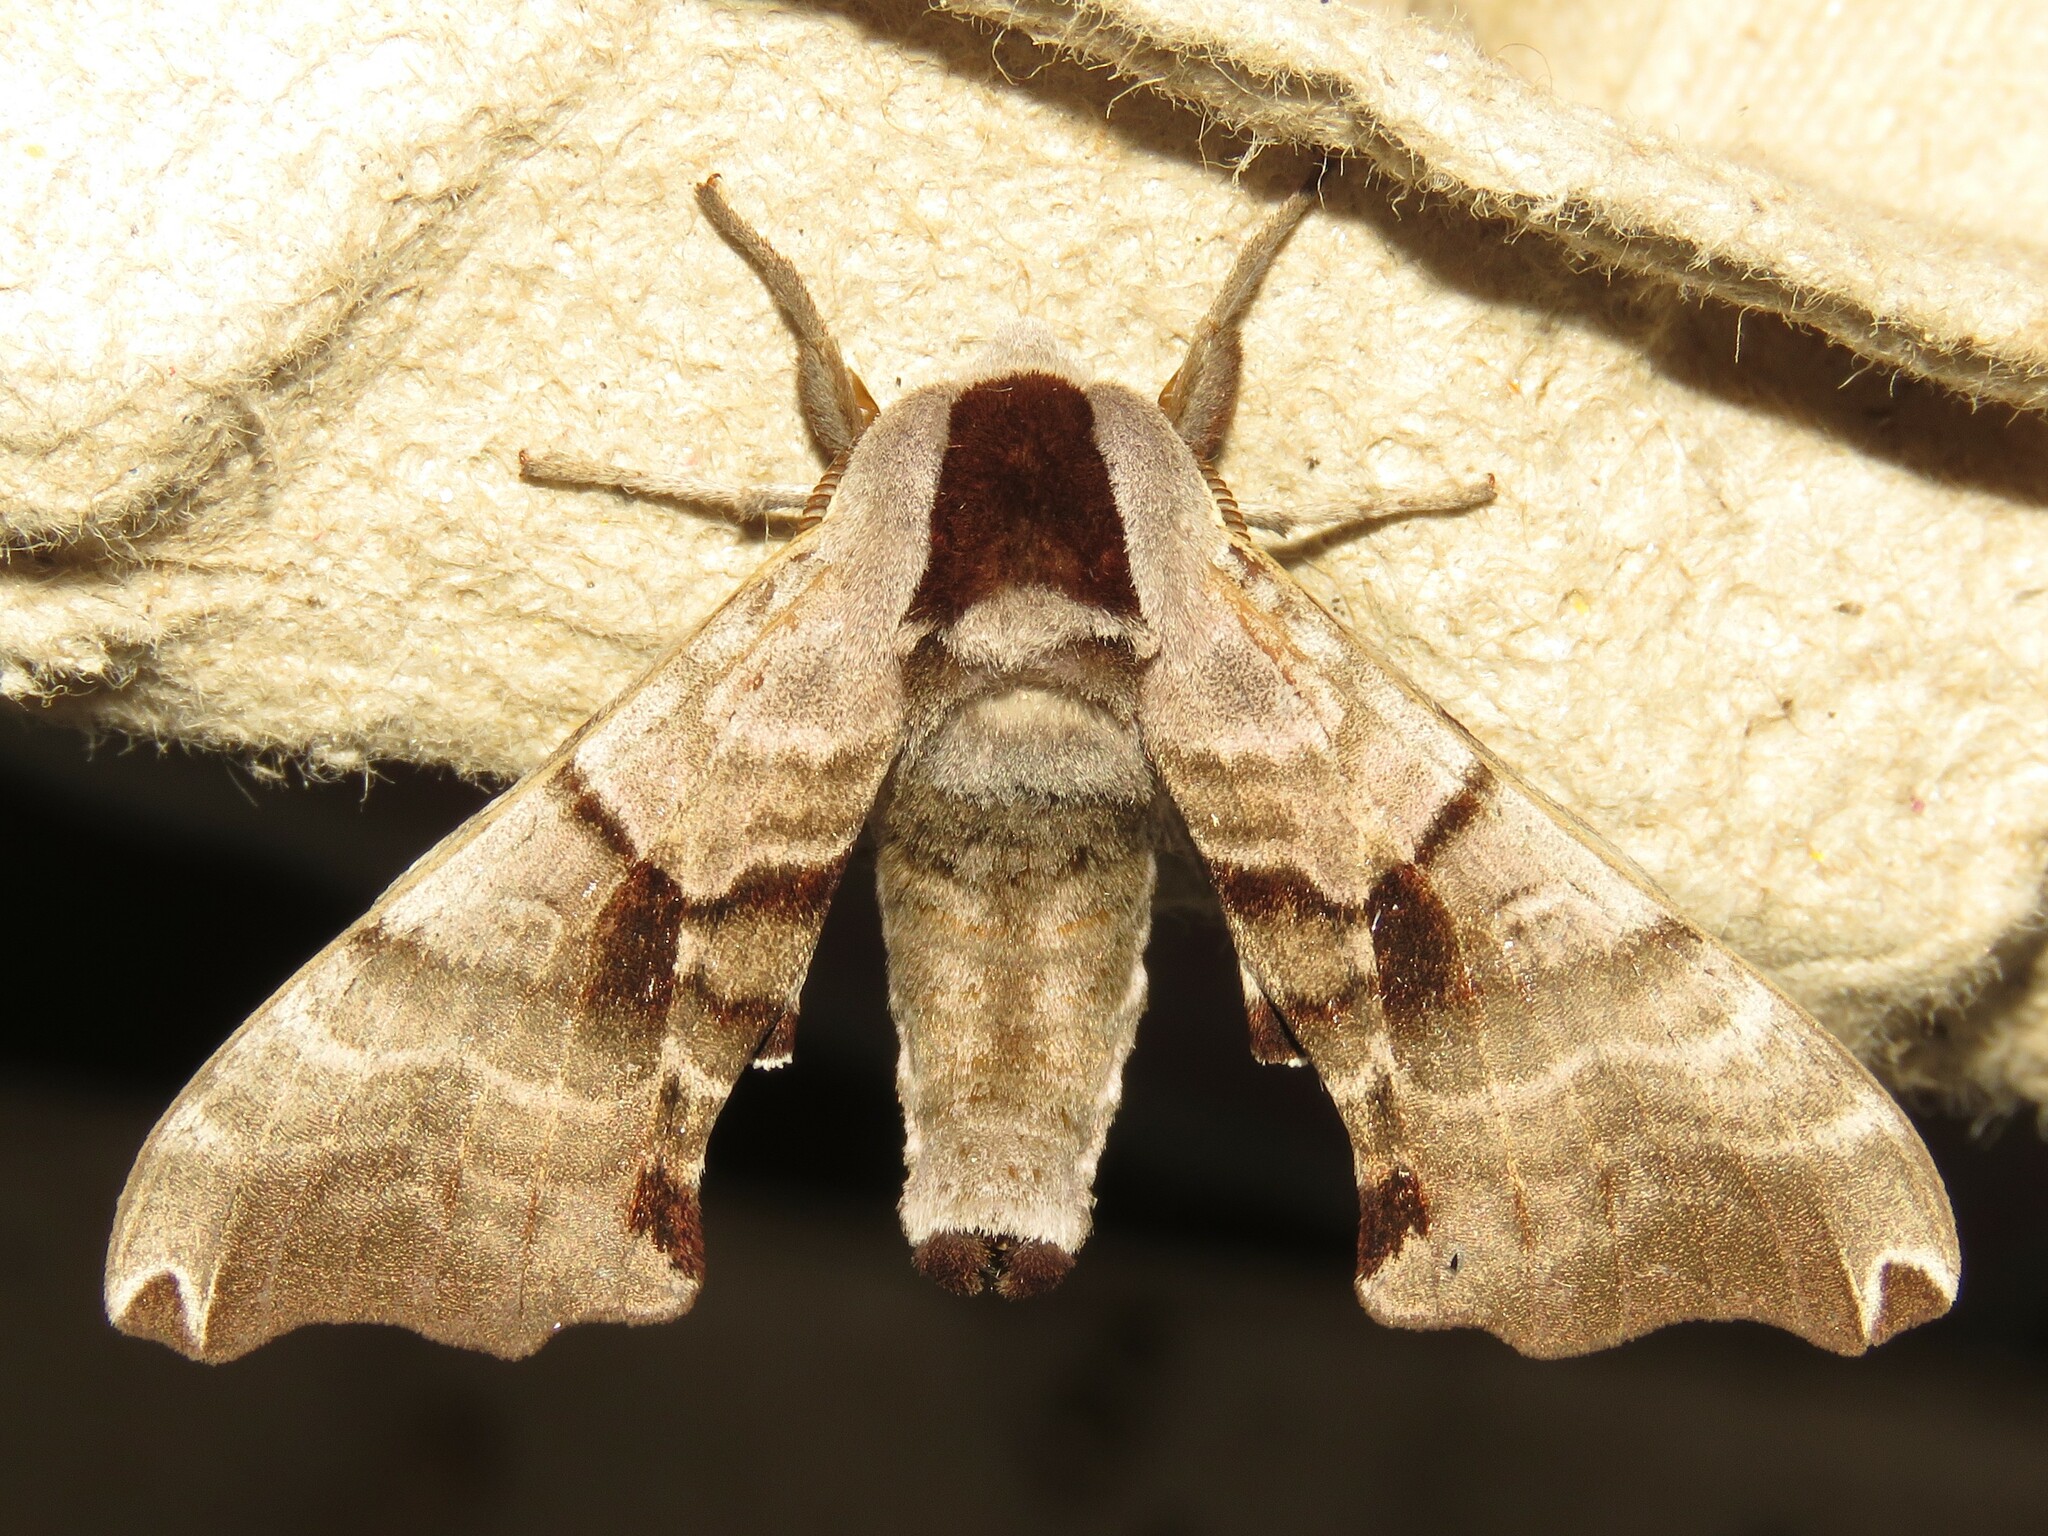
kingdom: Animalia
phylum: Arthropoda
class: Insecta
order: Lepidoptera
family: Sphingidae
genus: Smerinthus
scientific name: Smerinthus jamaicensis
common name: Twin spotted sphinx
